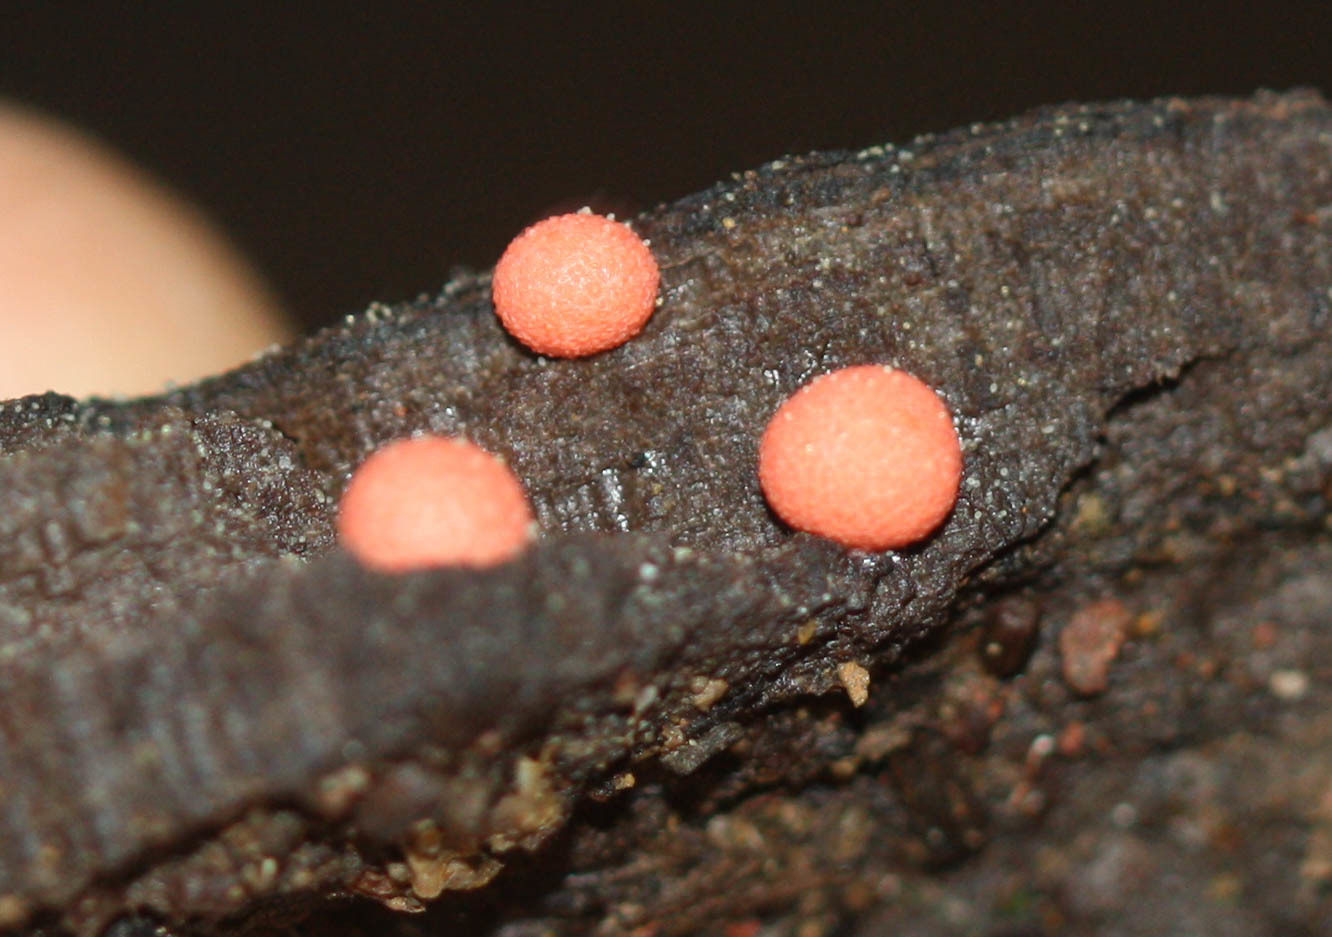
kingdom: Protozoa
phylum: Mycetozoa
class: Myxomycetes
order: Cribrariales
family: Tubiferaceae
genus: Lycogala
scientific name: Lycogala epidendrum
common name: Wolf's milk
